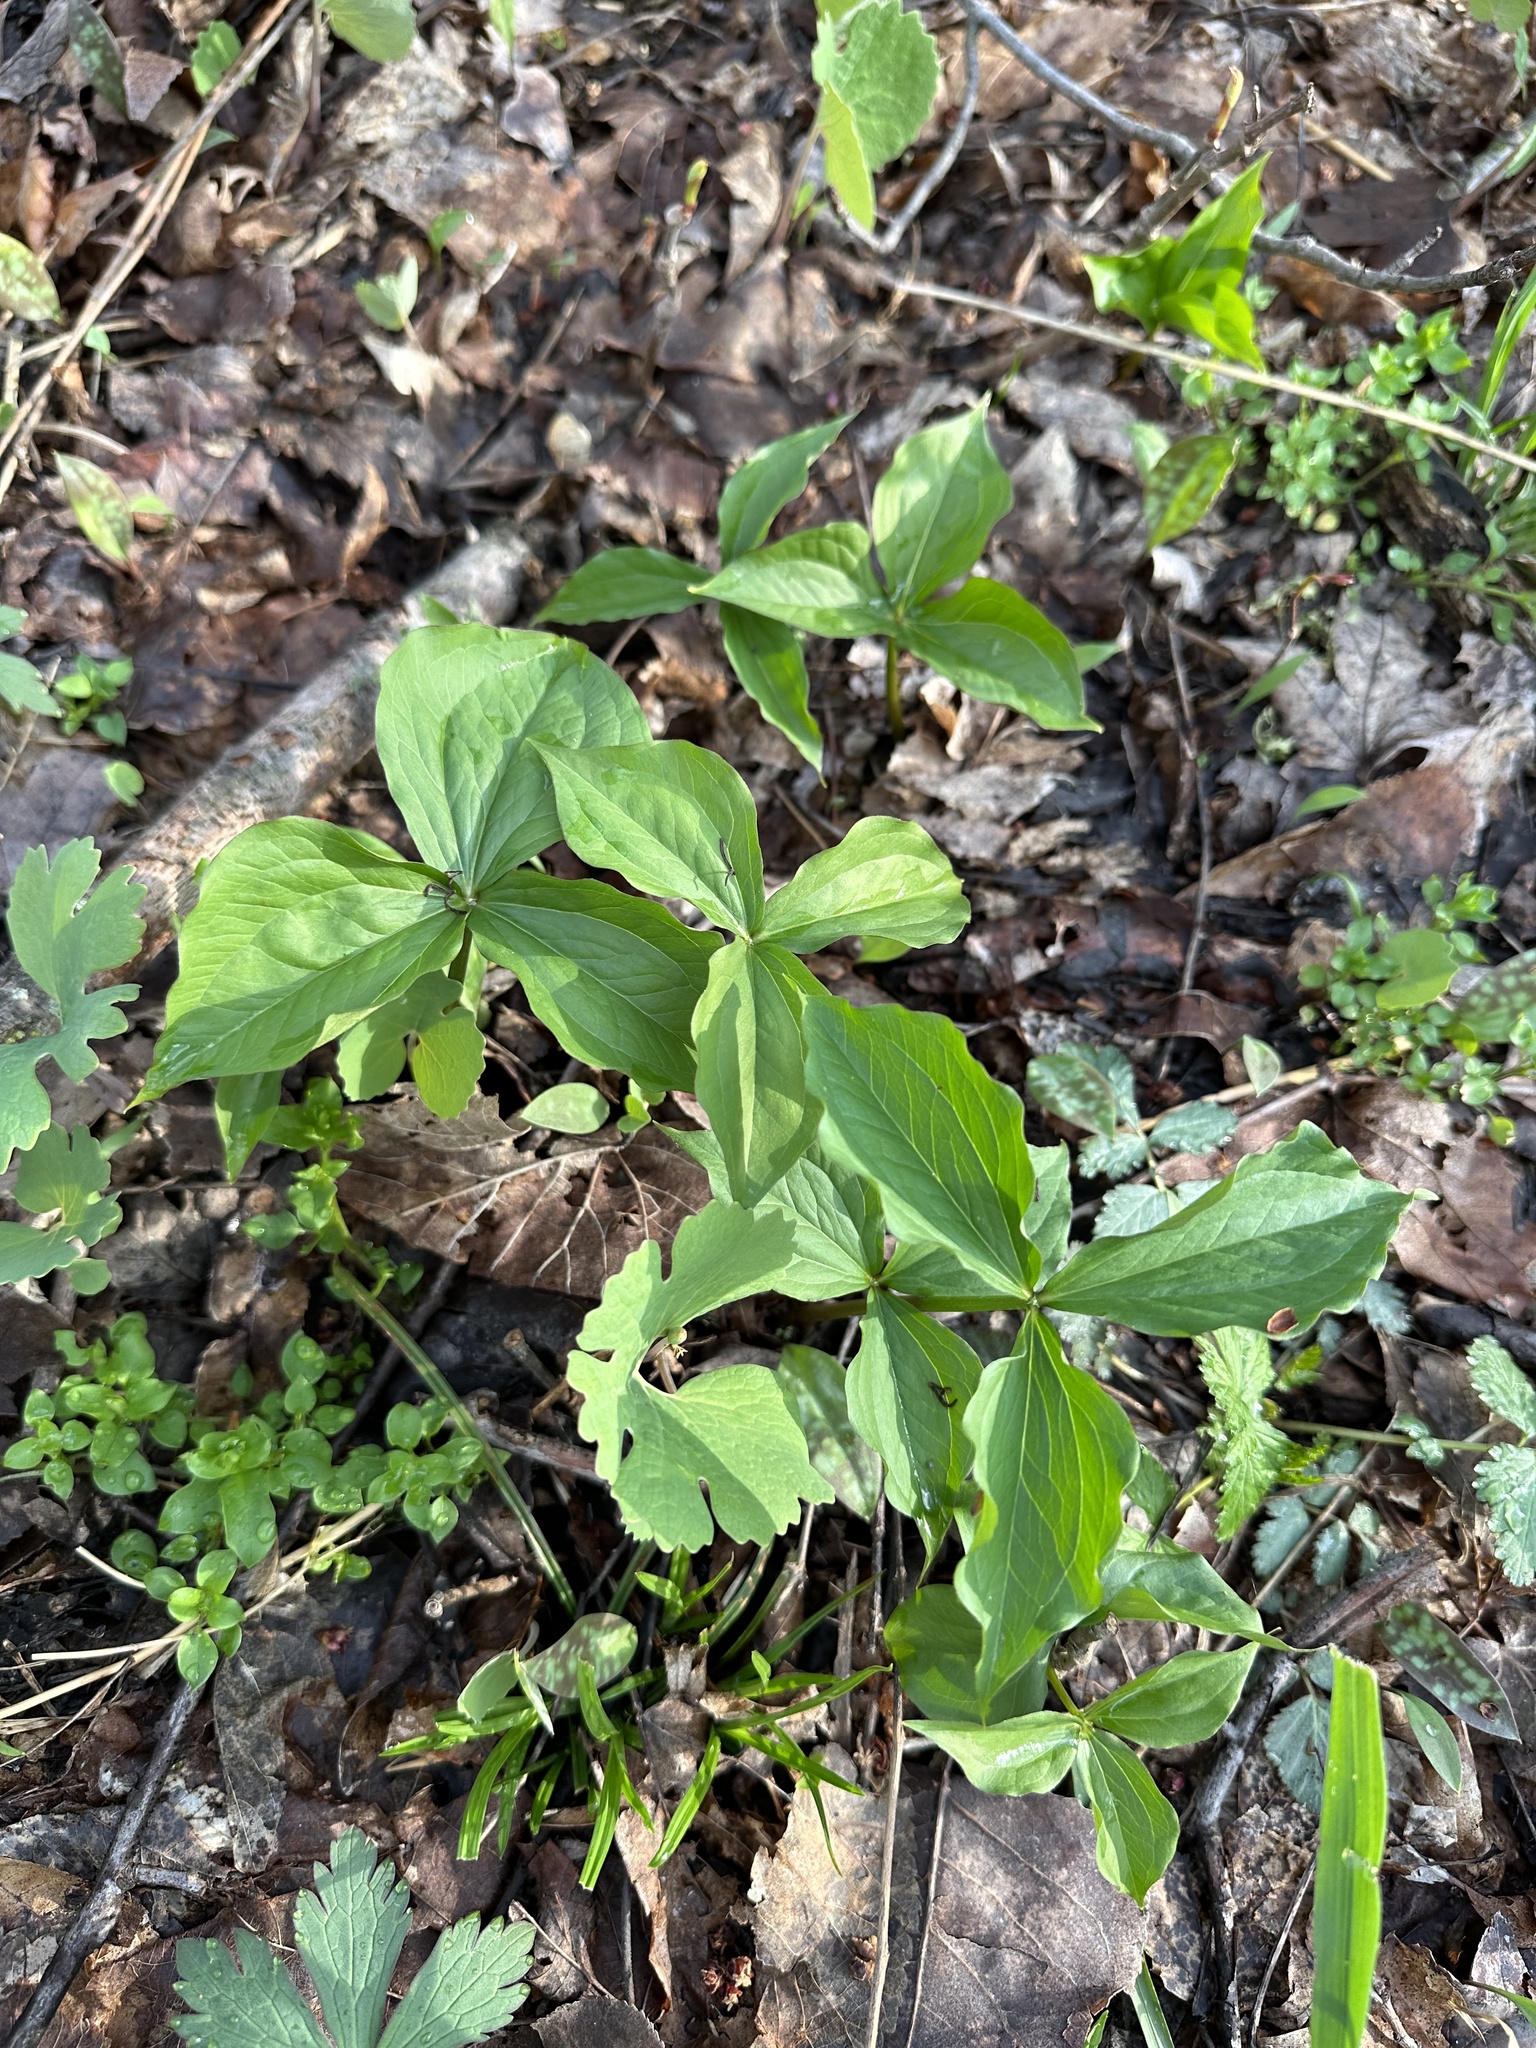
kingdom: Plantae
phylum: Tracheophyta
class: Liliopsida
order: Liliales
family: Melanthiaceae
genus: Trillium
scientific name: Trillium grandiflorum
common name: Great white trillium
